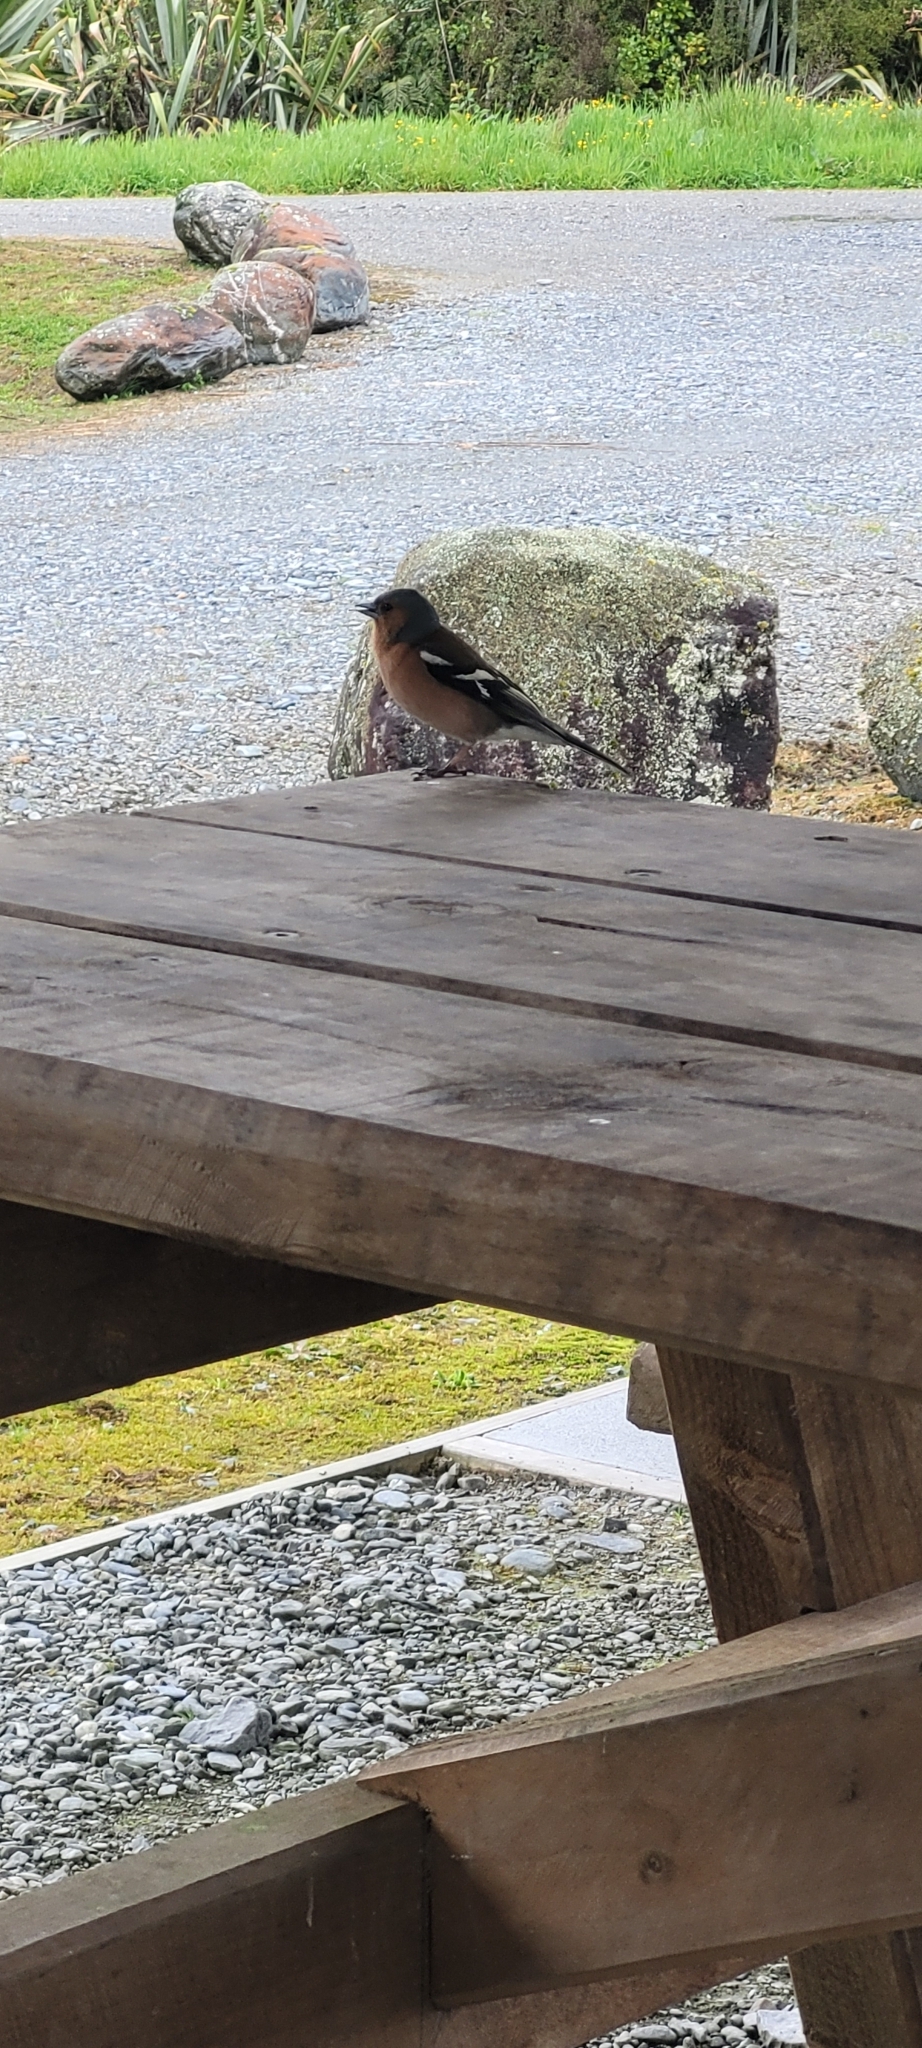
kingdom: Animalia
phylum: Chordata
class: Aves
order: Passeriformes
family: Fringillidae
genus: Fringilla
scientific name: Fringilla coelebs
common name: Common chaffinch
